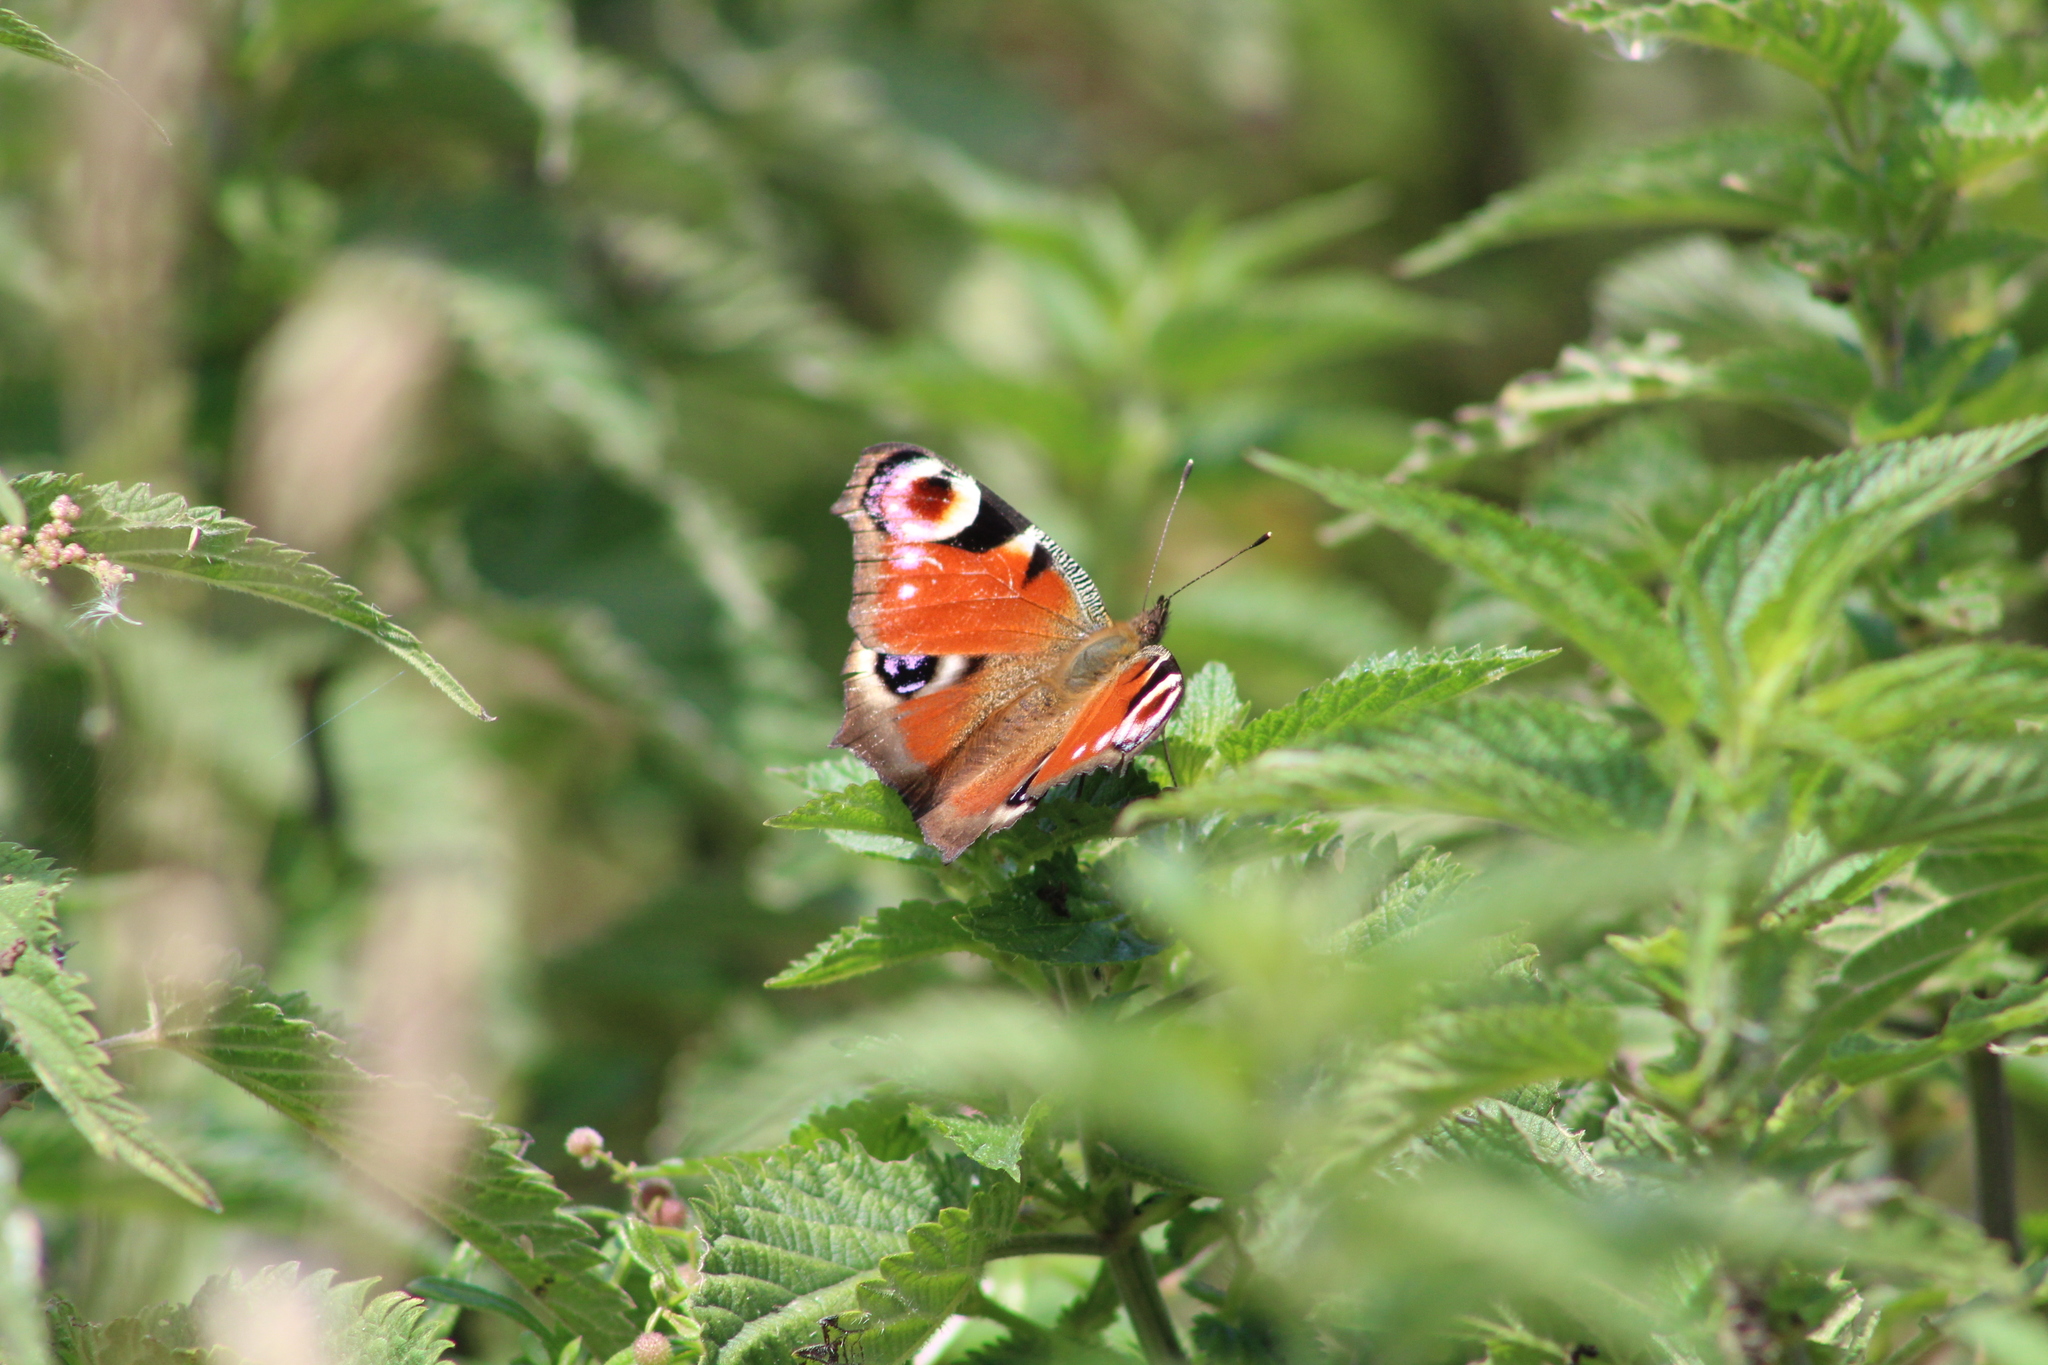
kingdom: Animalia
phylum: Arthropoda
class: Insecta
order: Lepidoptera
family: Nymphalidae
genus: Aglais
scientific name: Aglais io
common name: Peacock
